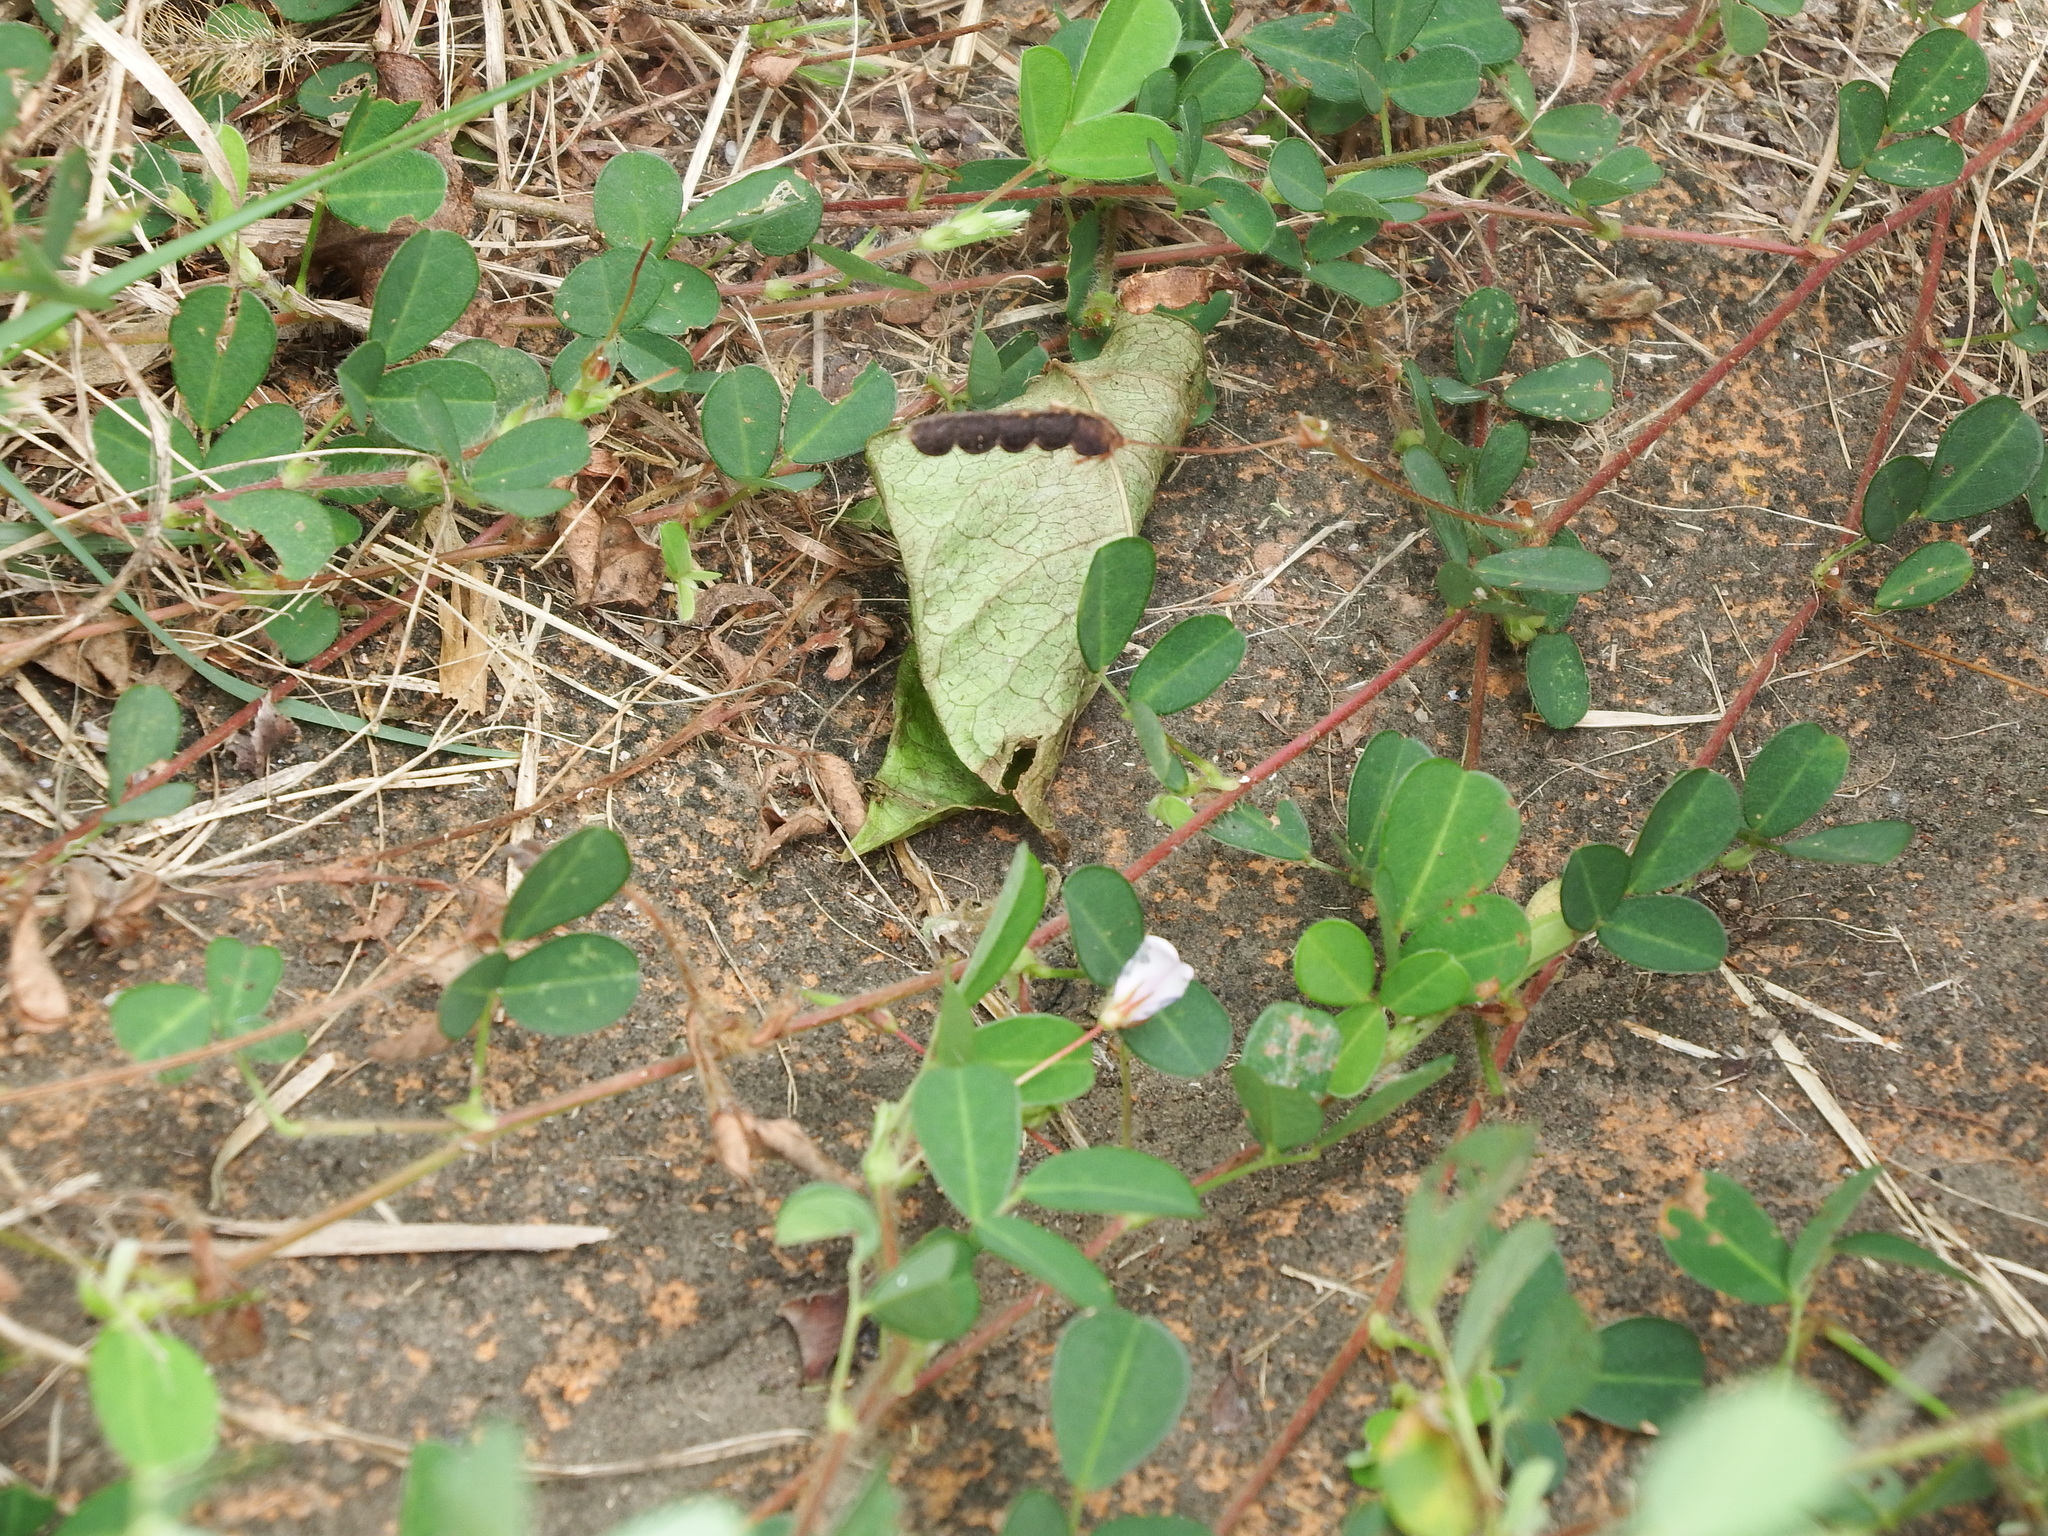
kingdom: Plantae
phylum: Tracheophyta
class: Magnoliopsida
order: Fabales
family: Fabaceae
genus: Grona
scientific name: Grona heterophylla
